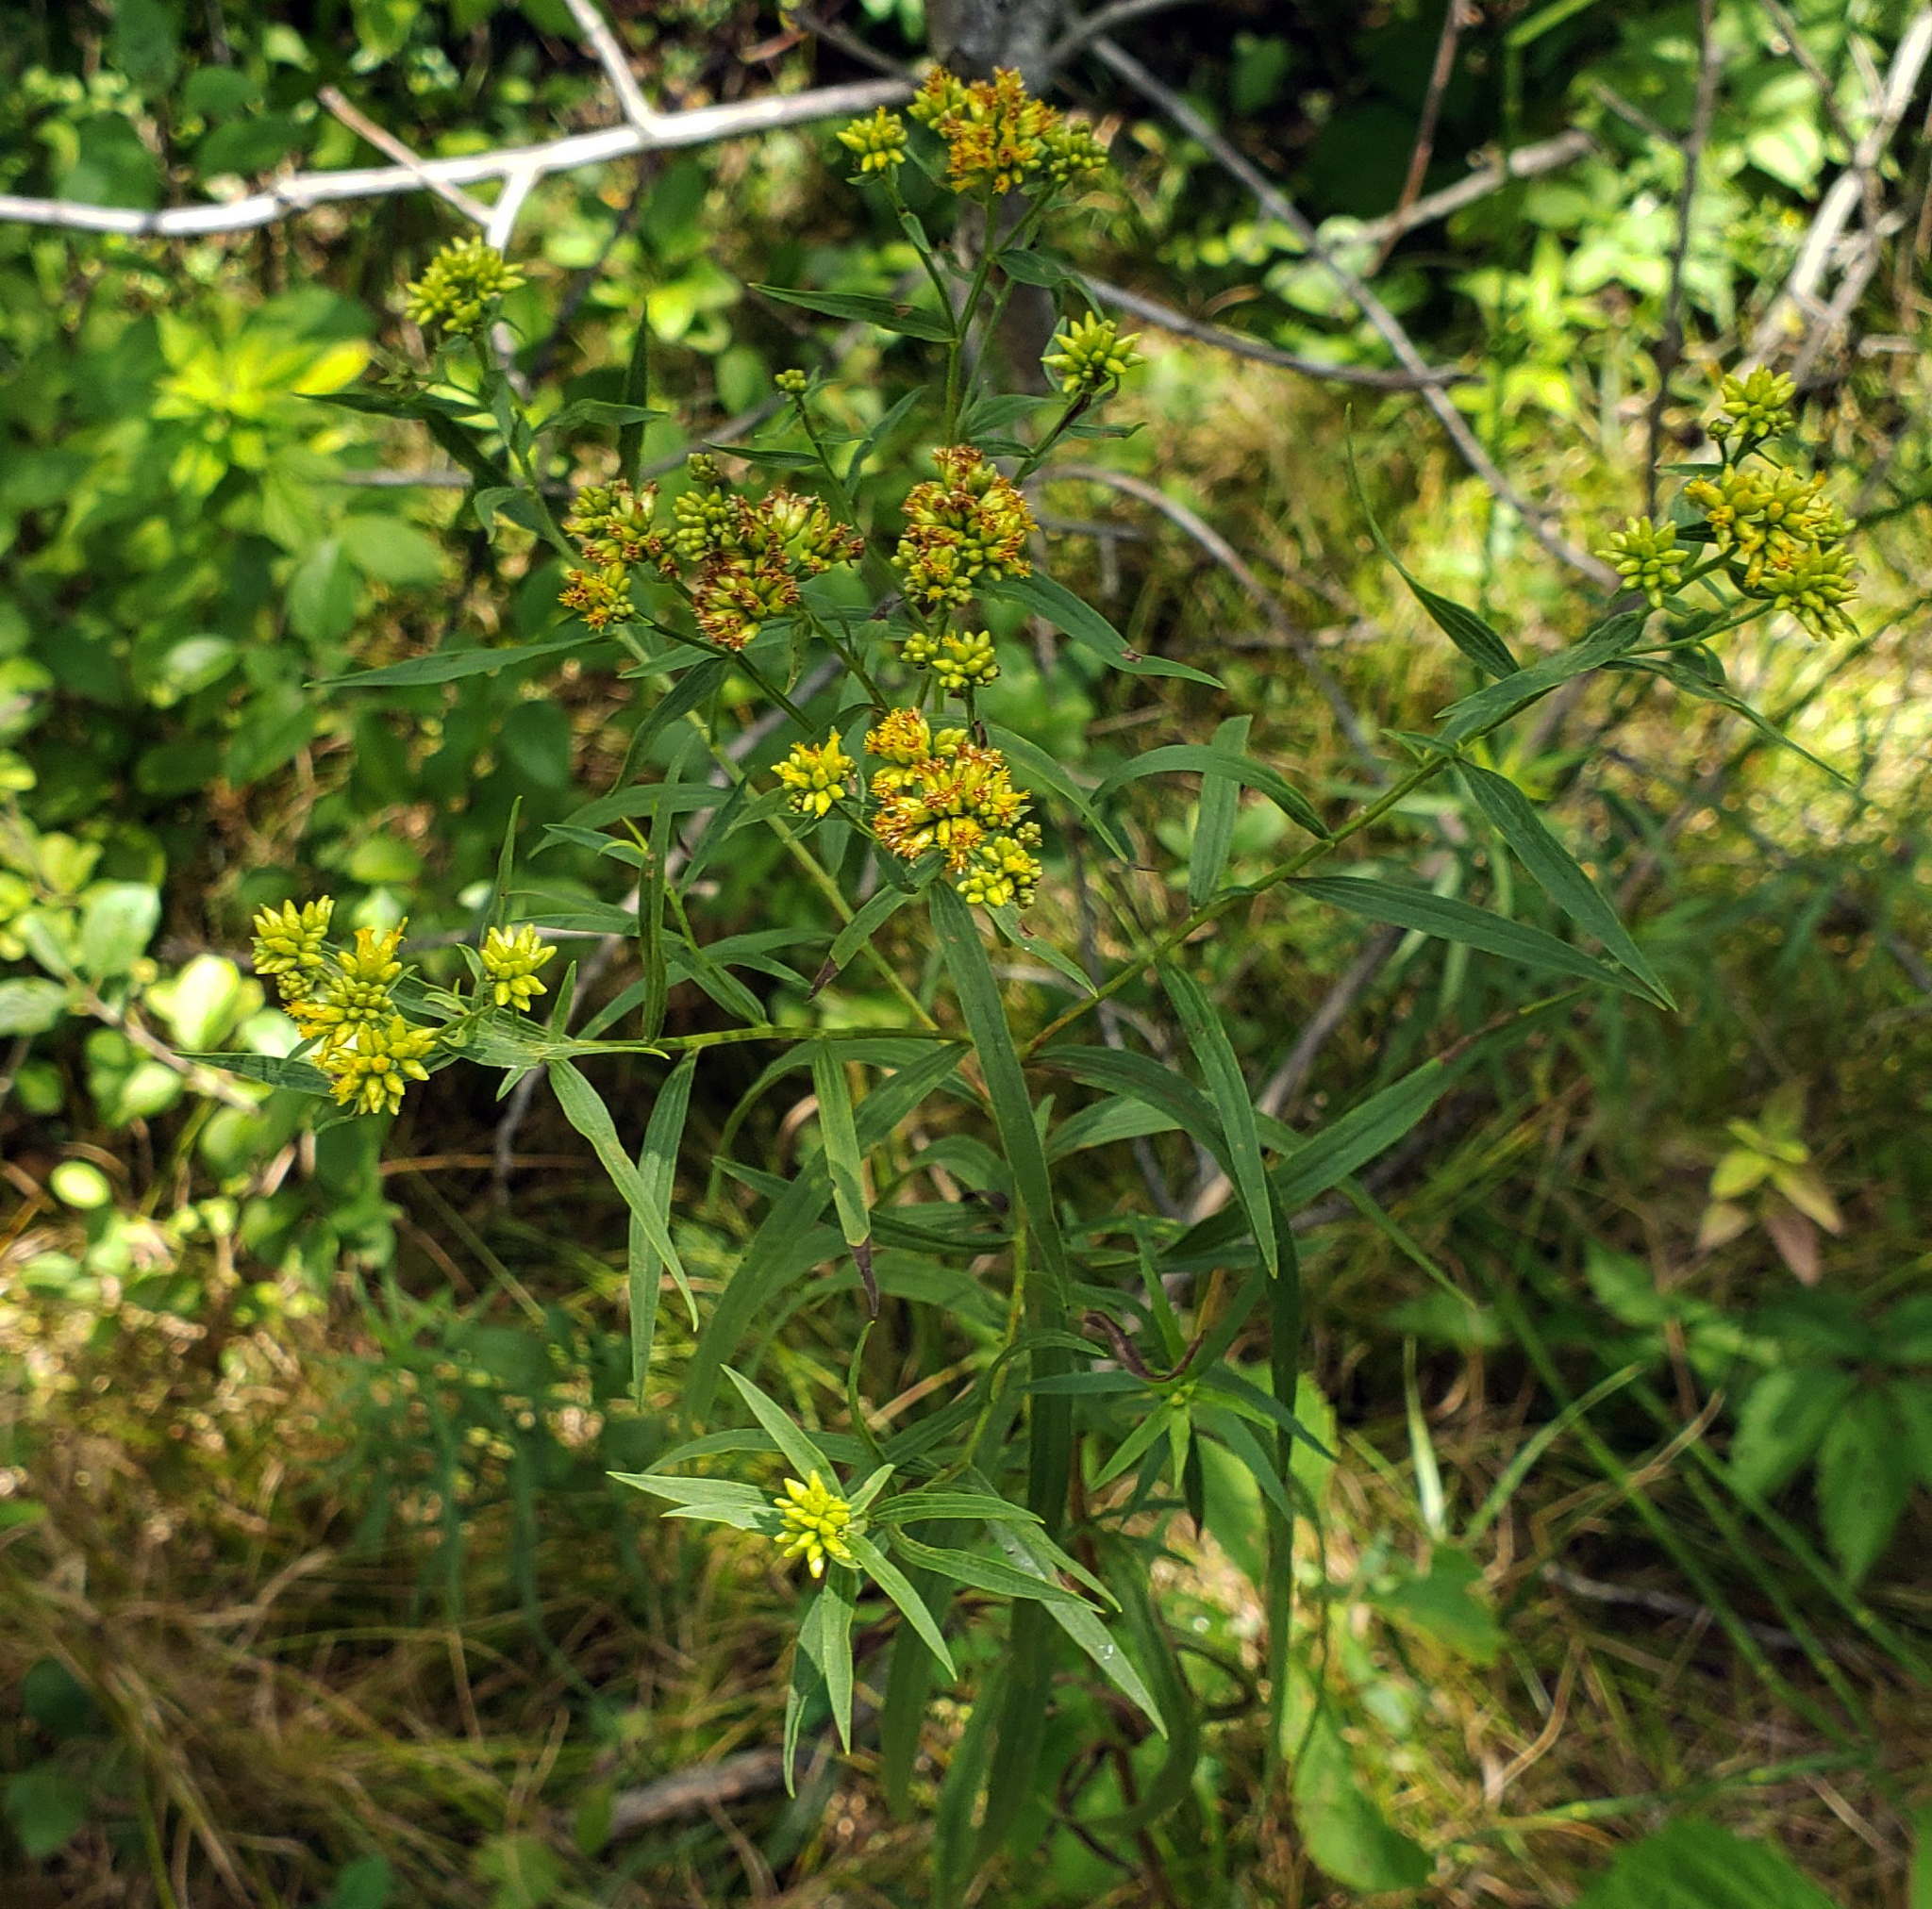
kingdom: Plantae
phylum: Tracheophyta
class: Magnoliopsida
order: Asterales
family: Asteraceae
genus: Euthamia
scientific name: Euthamia graminifolia
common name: Common goldentop
